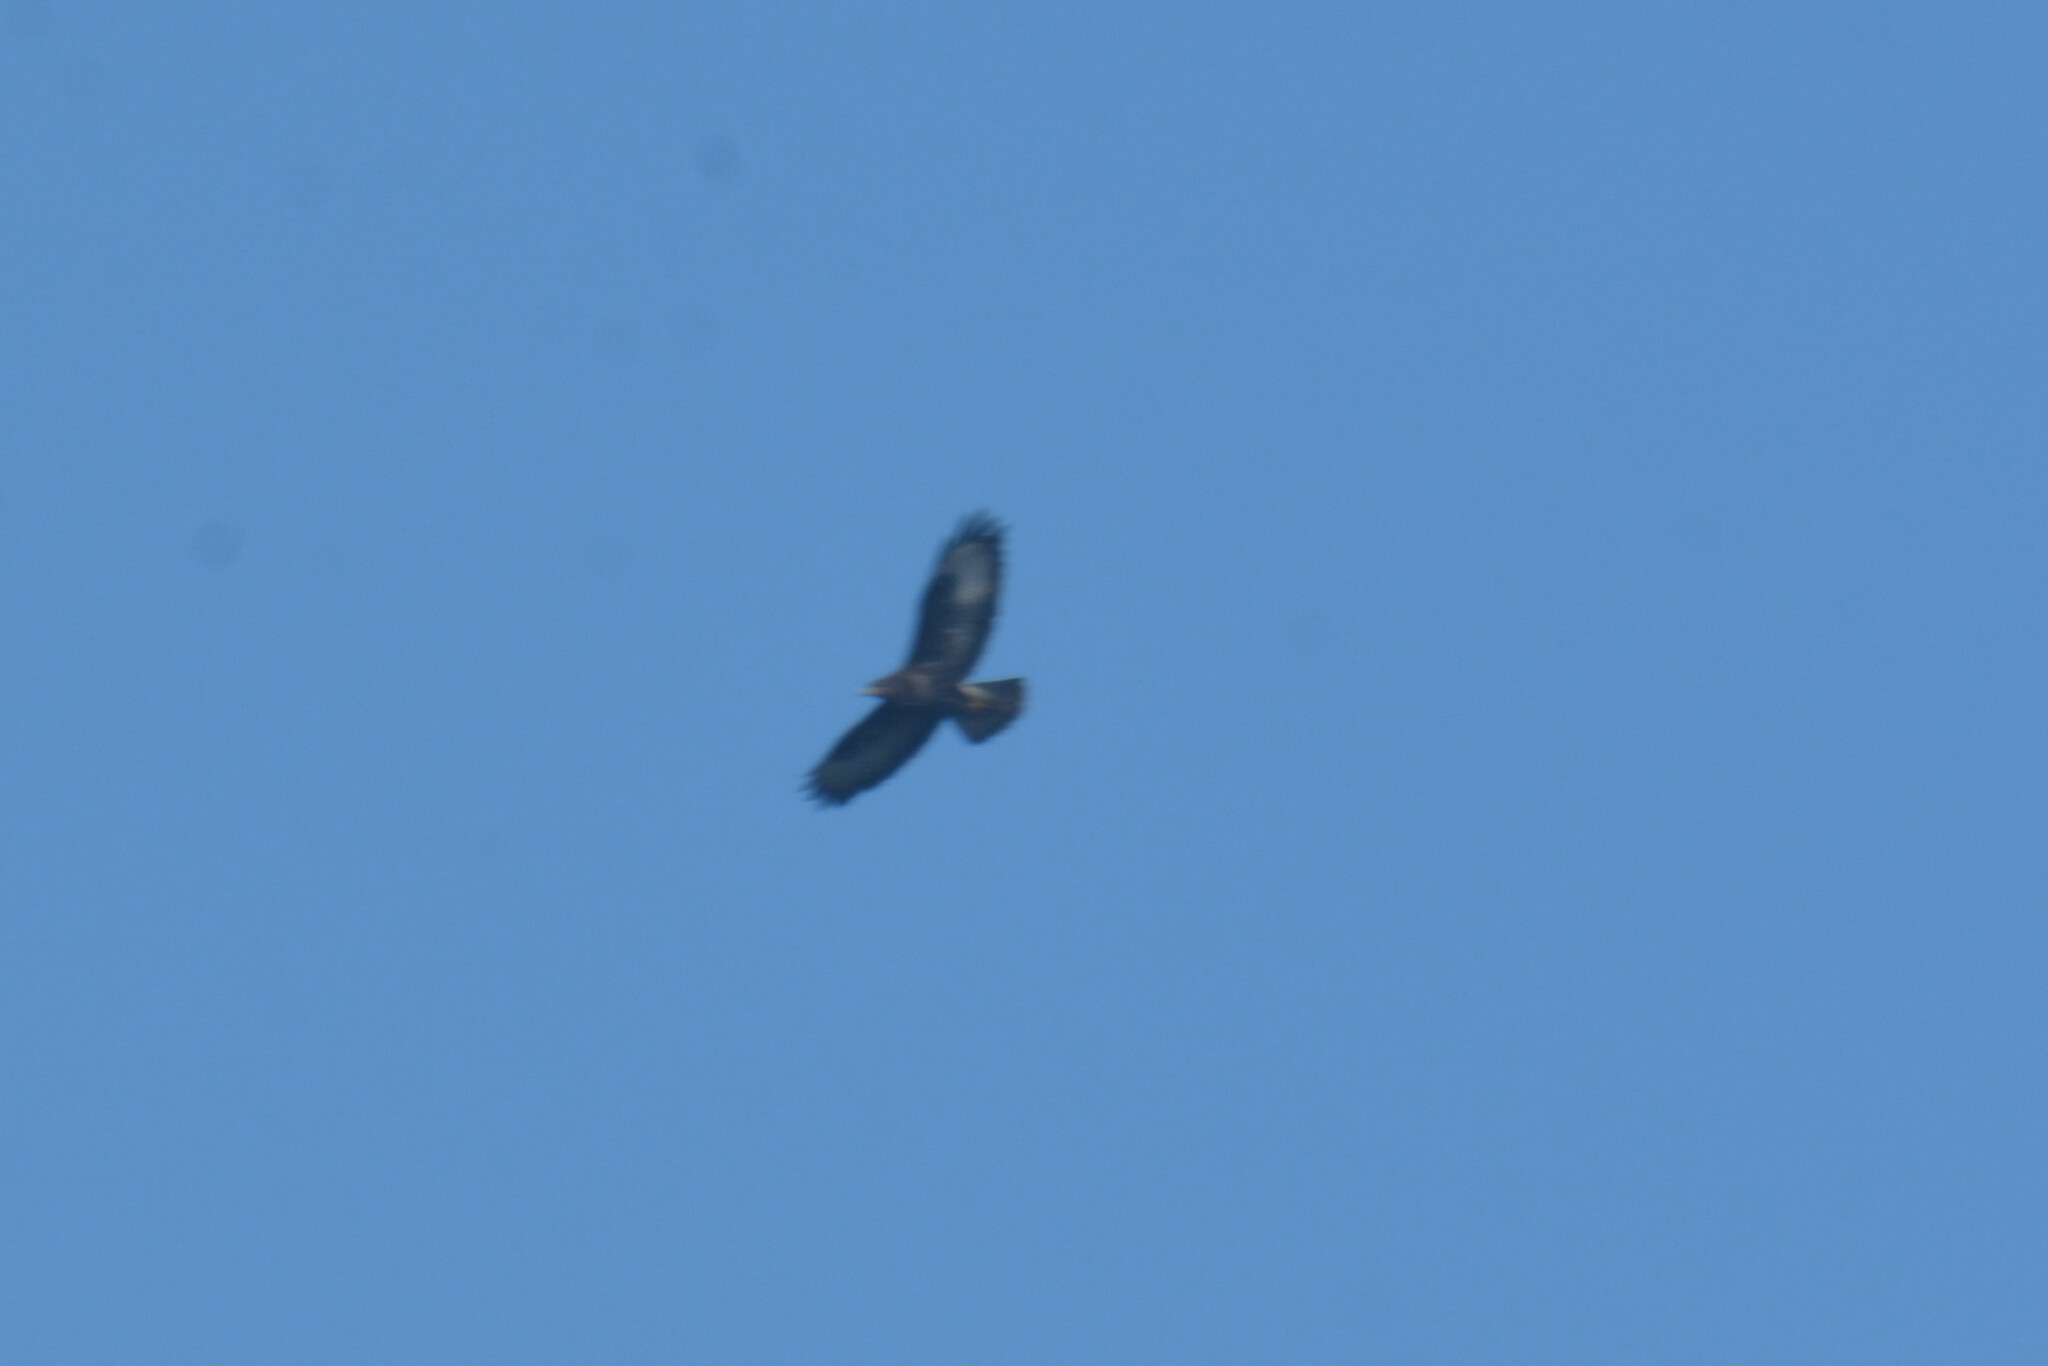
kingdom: Animalia
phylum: Chordata
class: Aves
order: Accipitriformes
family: Accipitridae
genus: Buteo
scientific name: Buteo buteo
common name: Common buzzard
